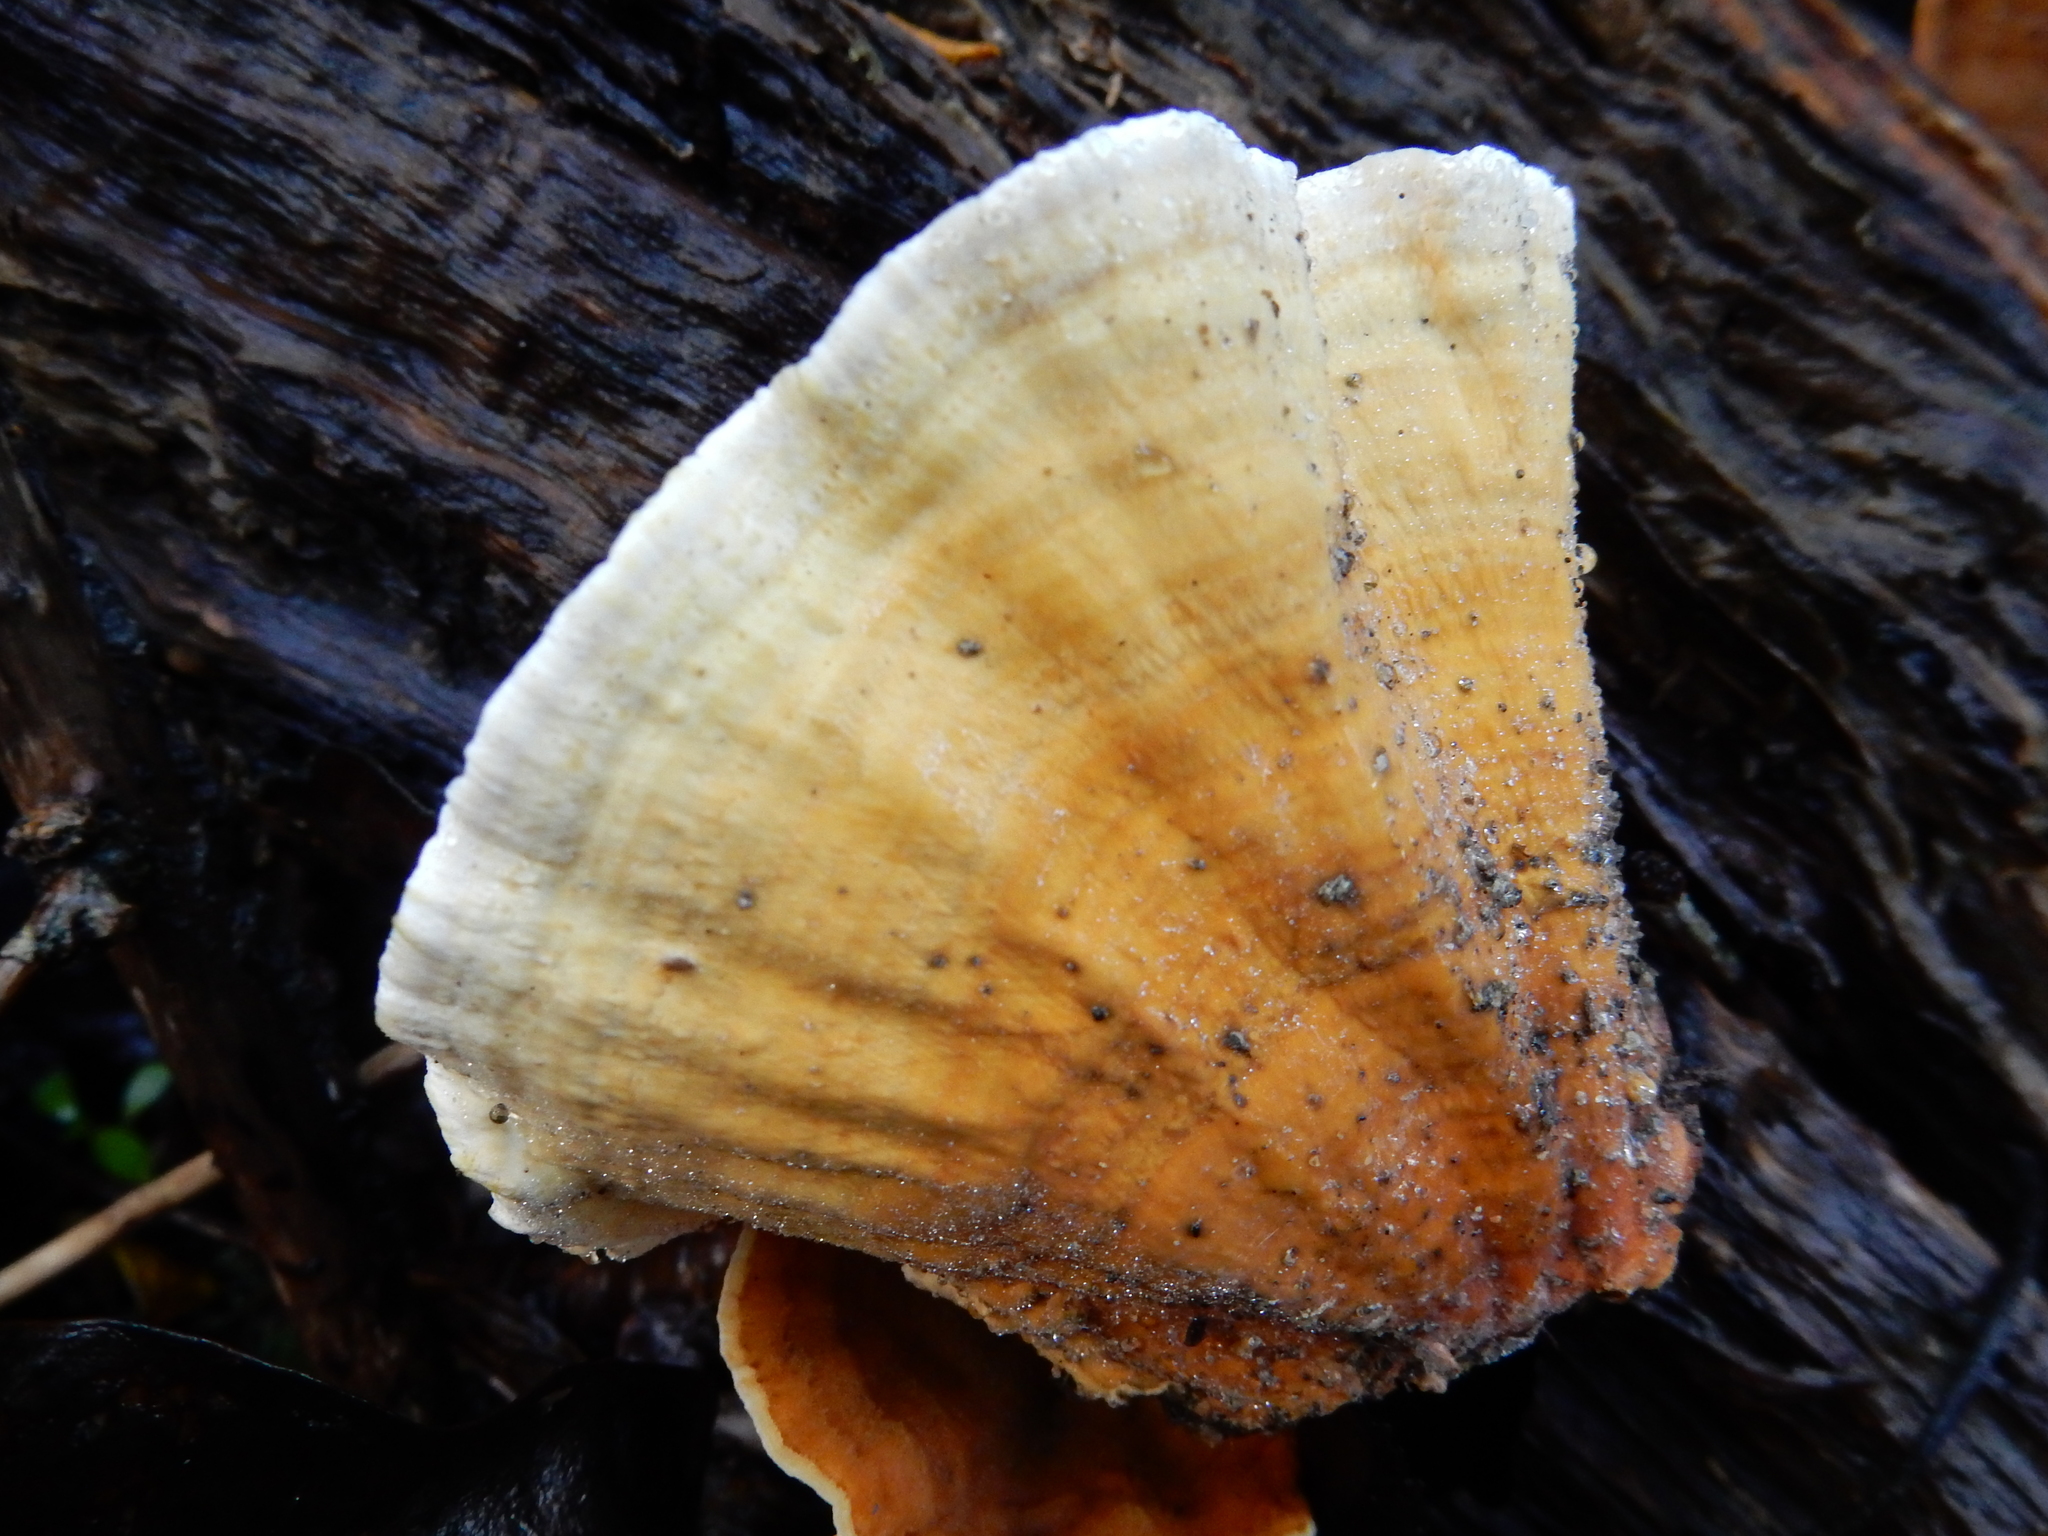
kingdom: Fungi
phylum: Basidiomycota
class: Agaricomycetes
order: Russulales
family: Stereaceae
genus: Stereum
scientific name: Stereum versicolor
